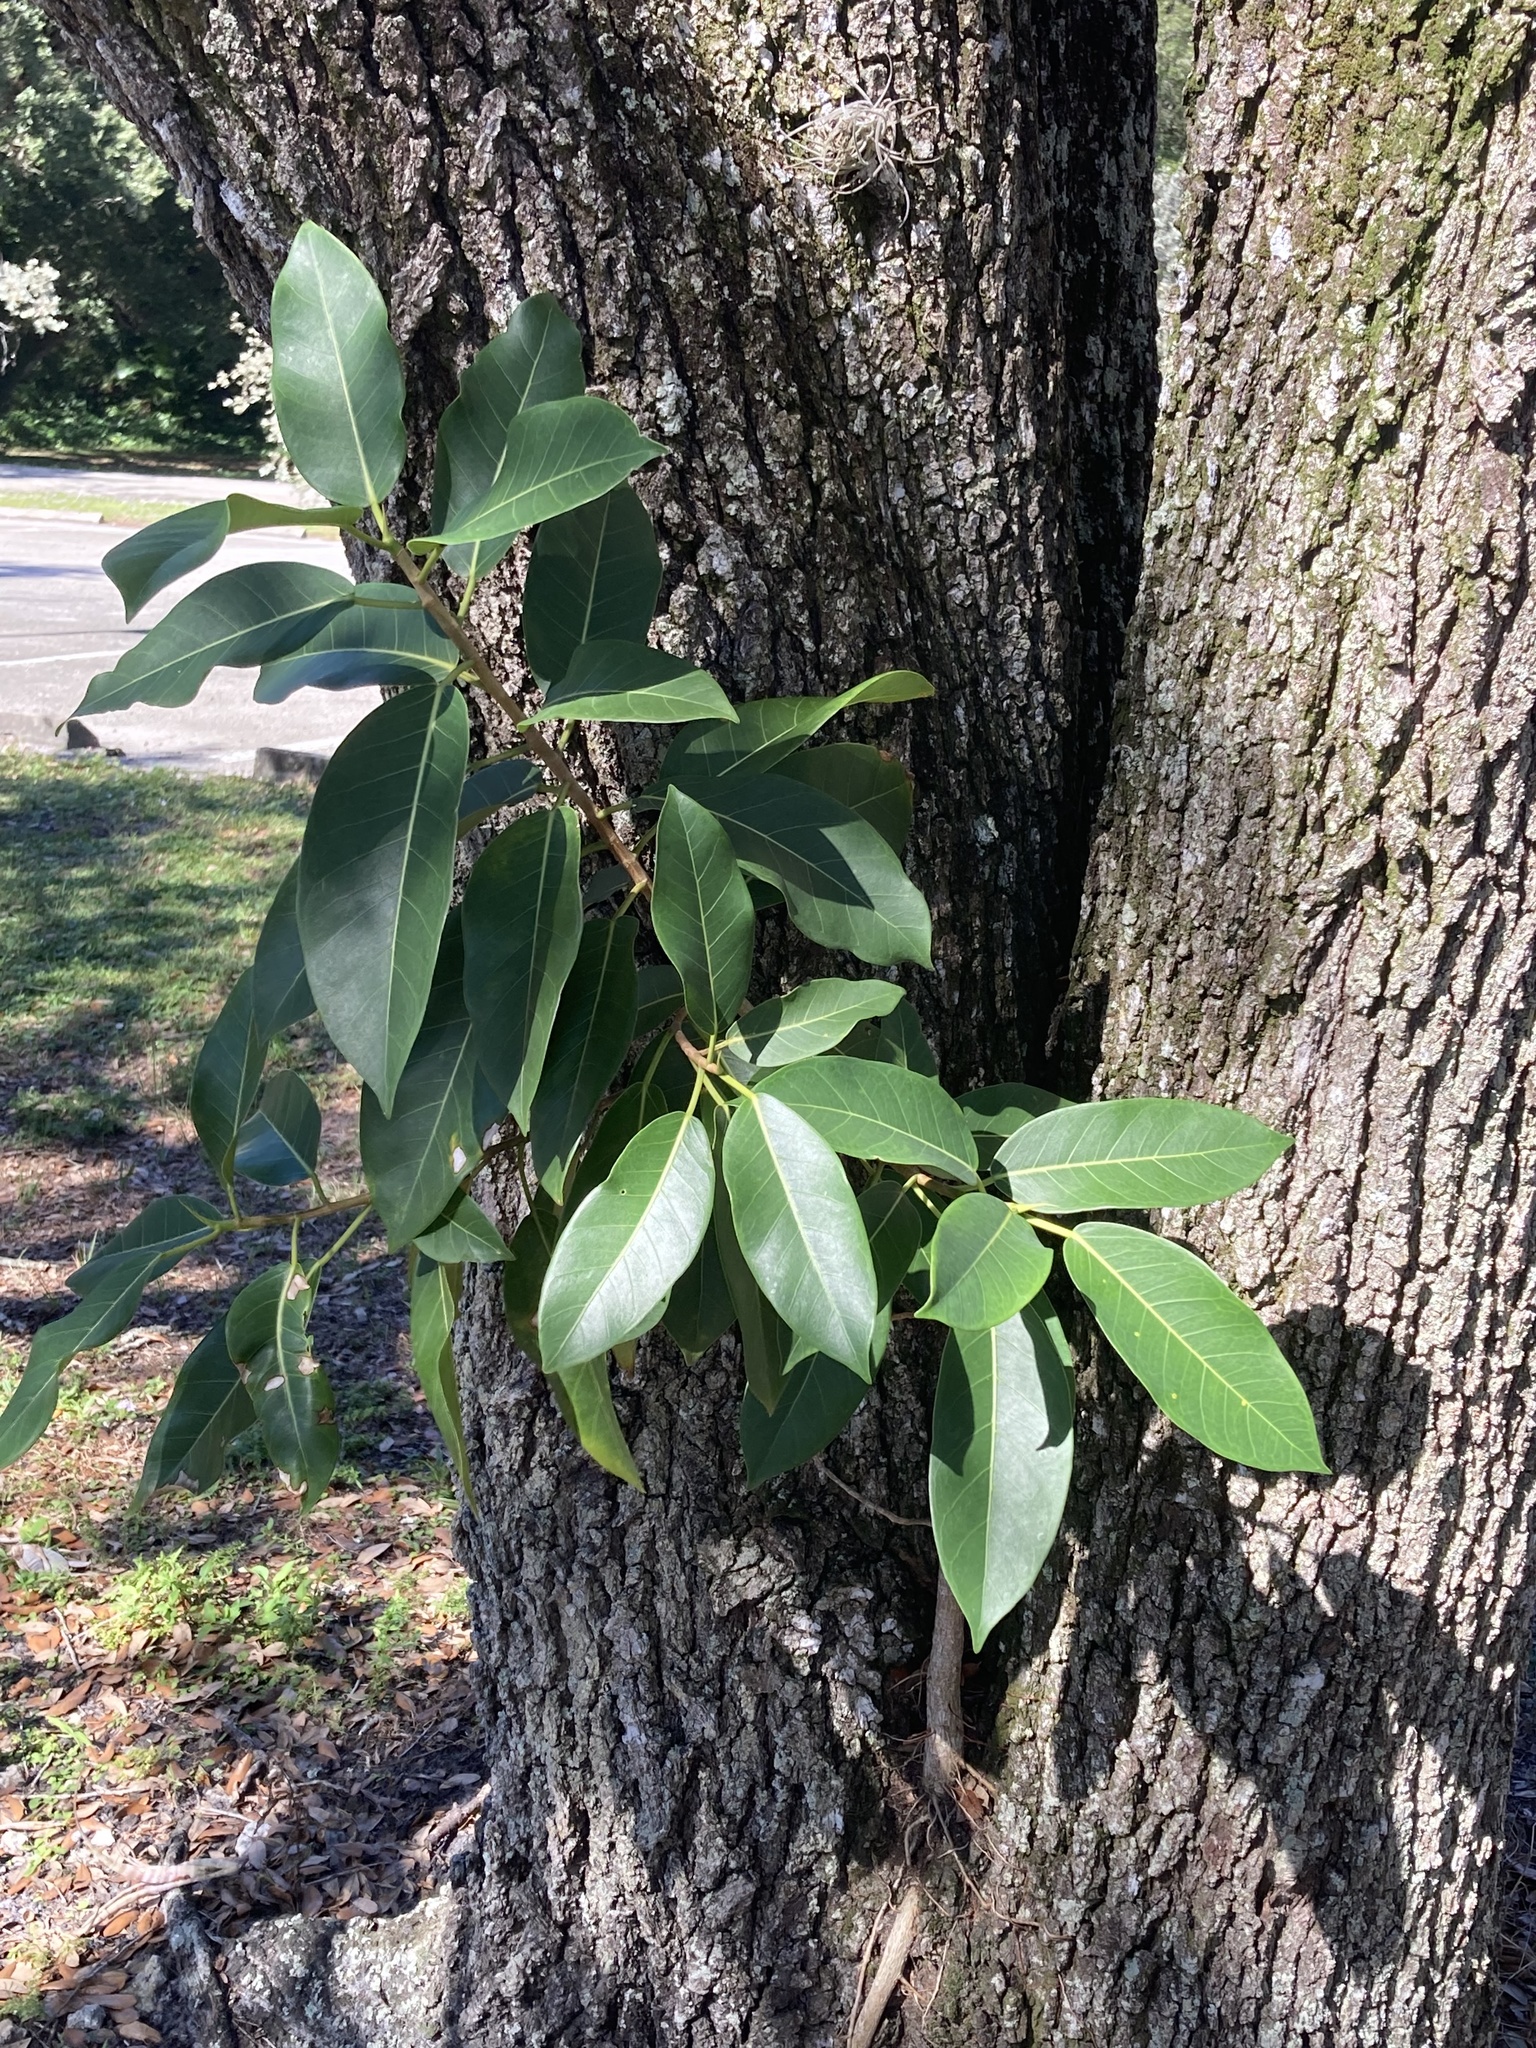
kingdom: Plantae
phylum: Tracheophyta
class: Magnoliopsida
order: Rosales
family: Moraceae
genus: Ficus
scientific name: Ficus aurea
